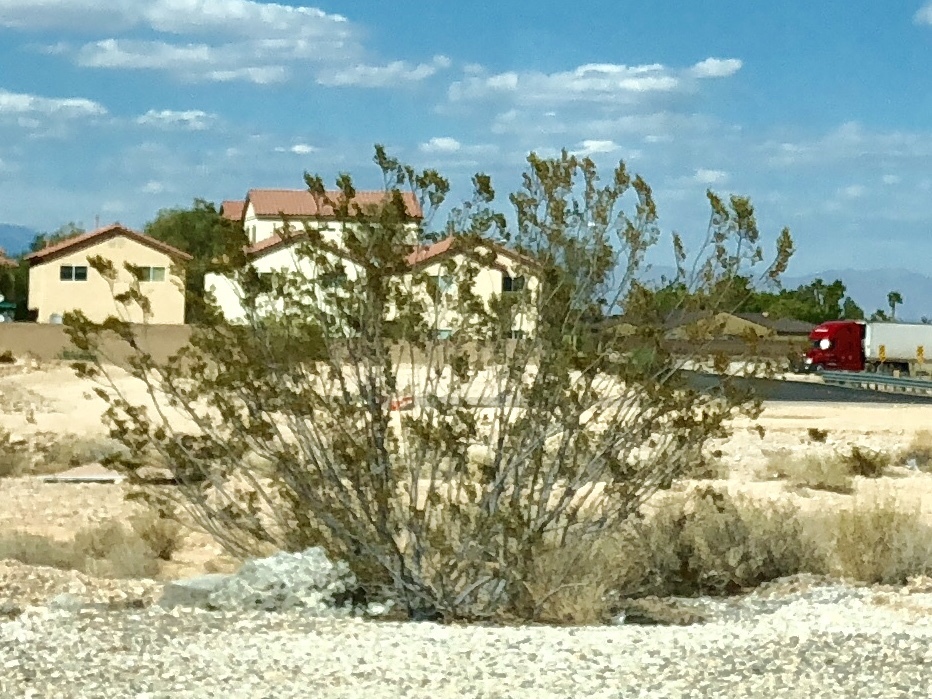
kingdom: Plantae
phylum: Tracheophyta
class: Magnoliopsida
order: Zygophyllales
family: Zygophyllaceae
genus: Larrea
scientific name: Larrea tridentata
